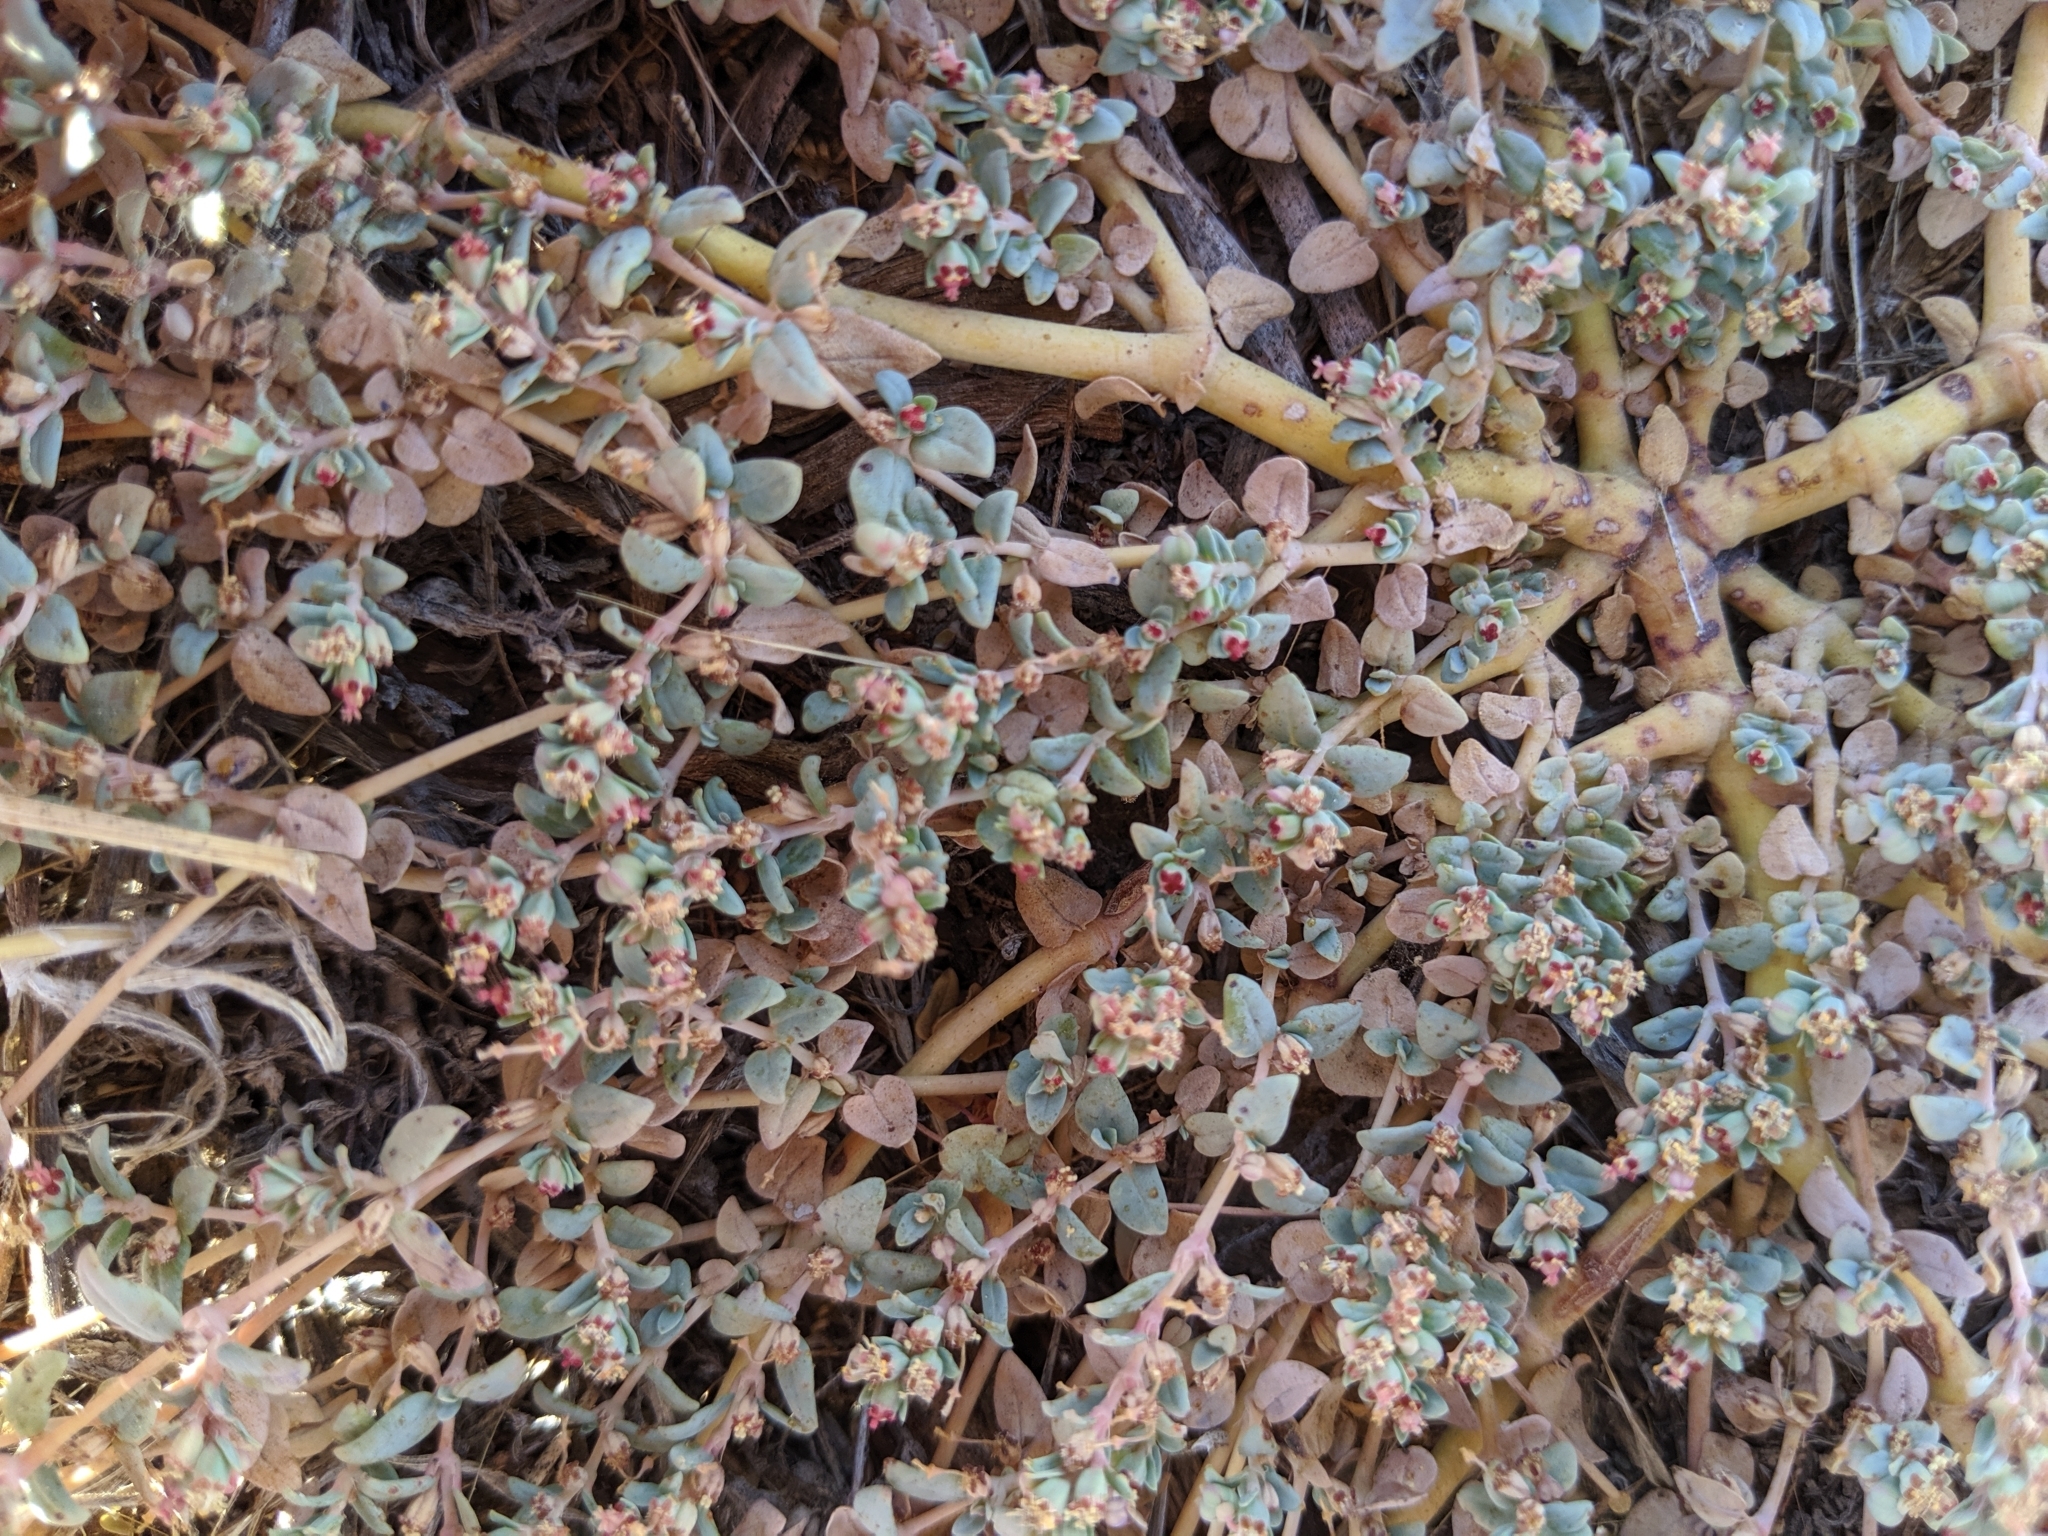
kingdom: Plantae
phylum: Tracheophyta
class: Magnoliopsida
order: Malpighiales
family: Euphorbiaceae
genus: Euphorbia
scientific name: Euphorbia ocellata
